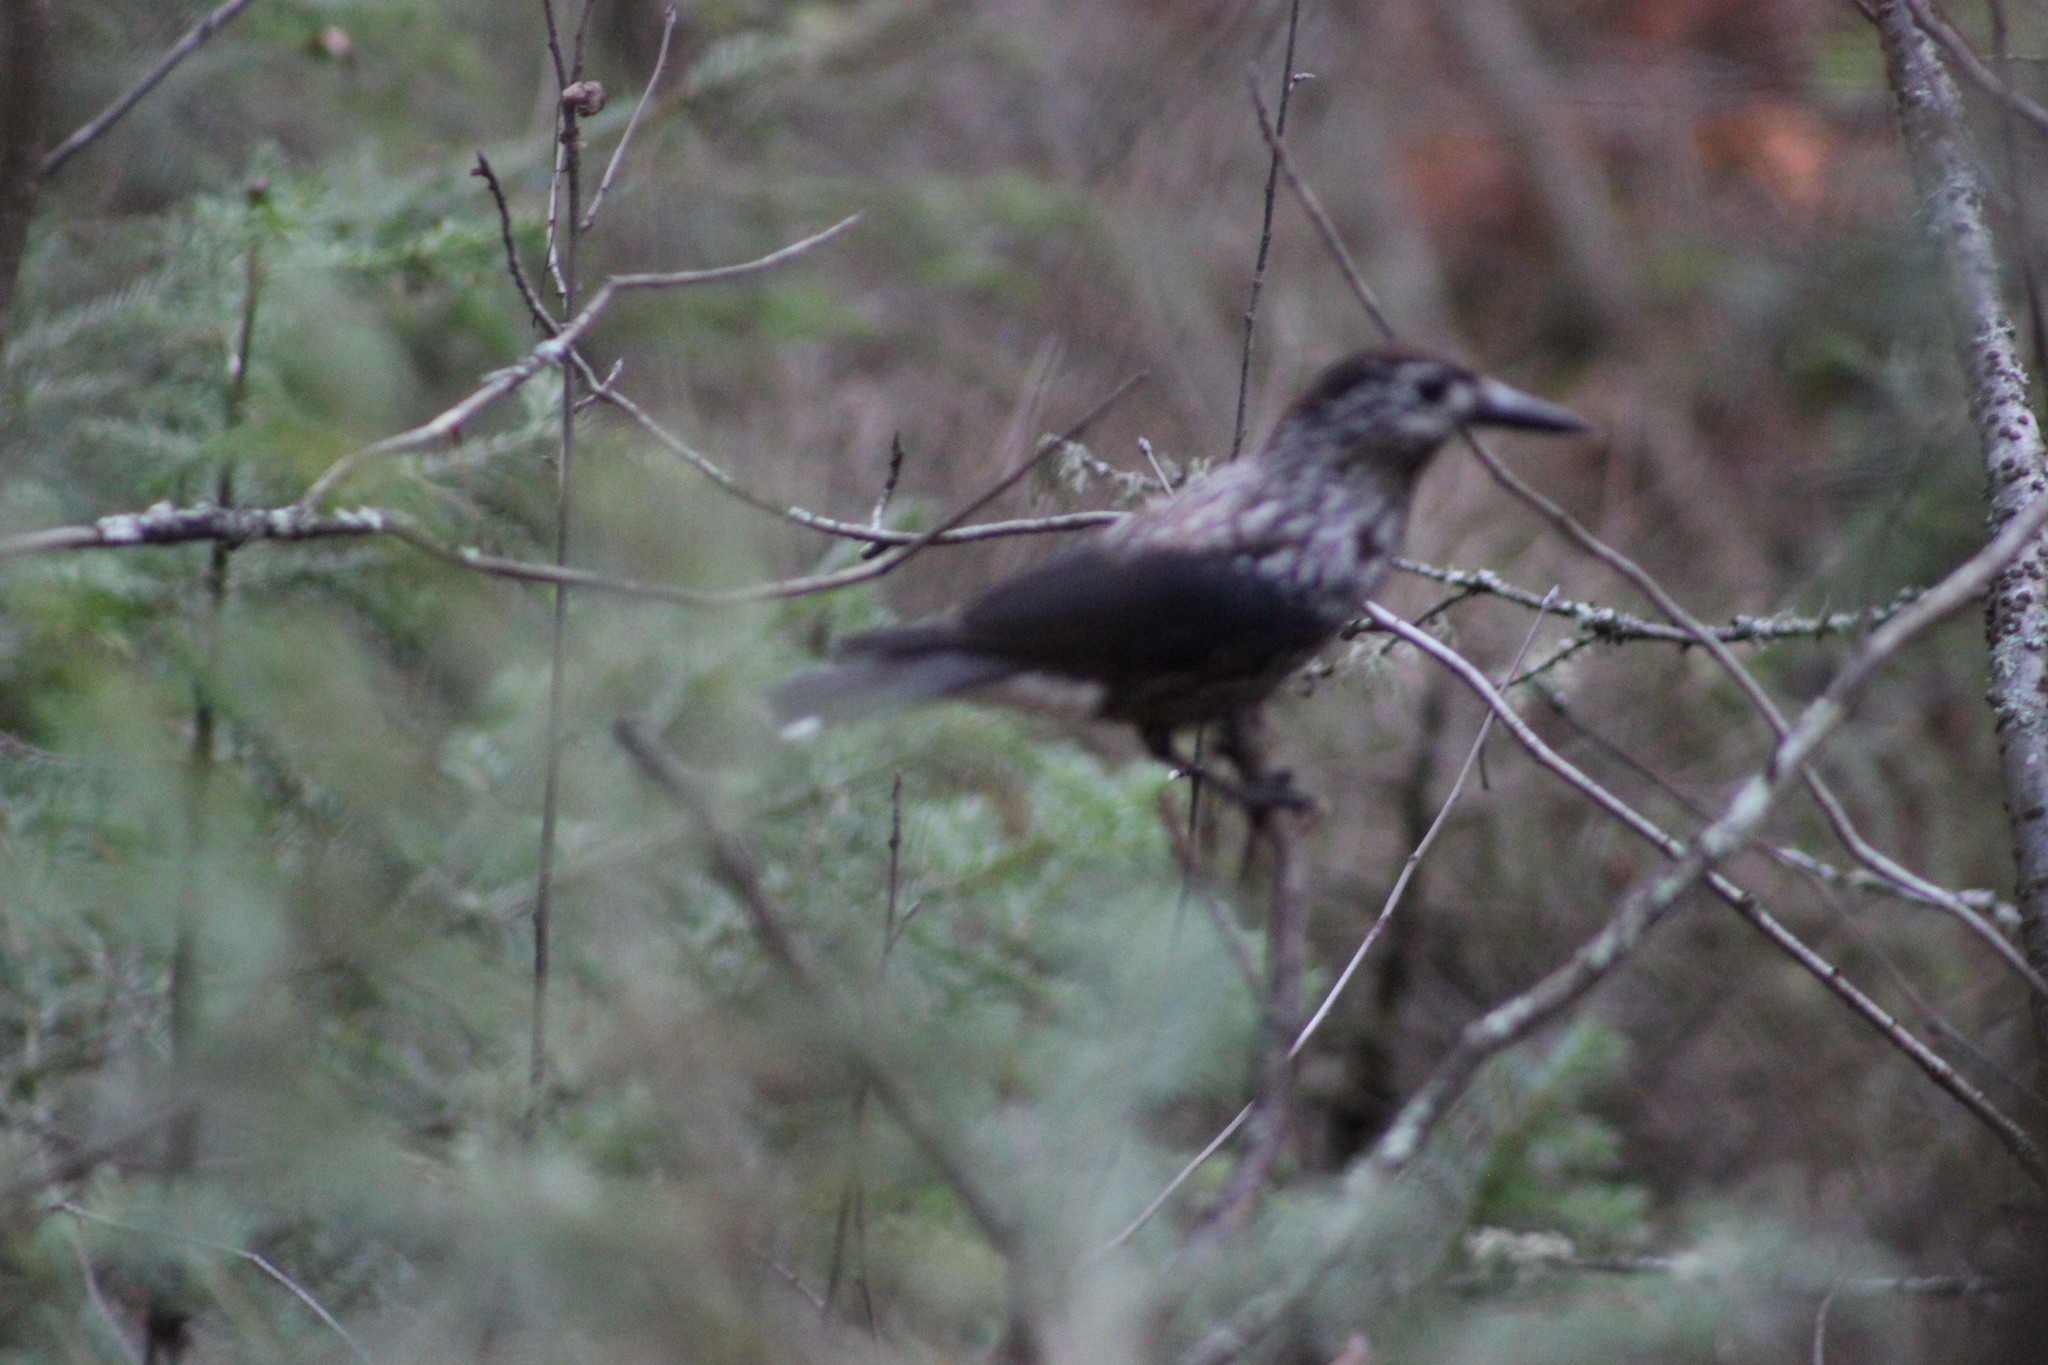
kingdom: Animalia
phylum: Chordata
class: Aves
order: Passeriformes
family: Corvidae
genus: Nucifraga
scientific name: Nucifraga caryocatactes
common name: Spotted nutcracker
